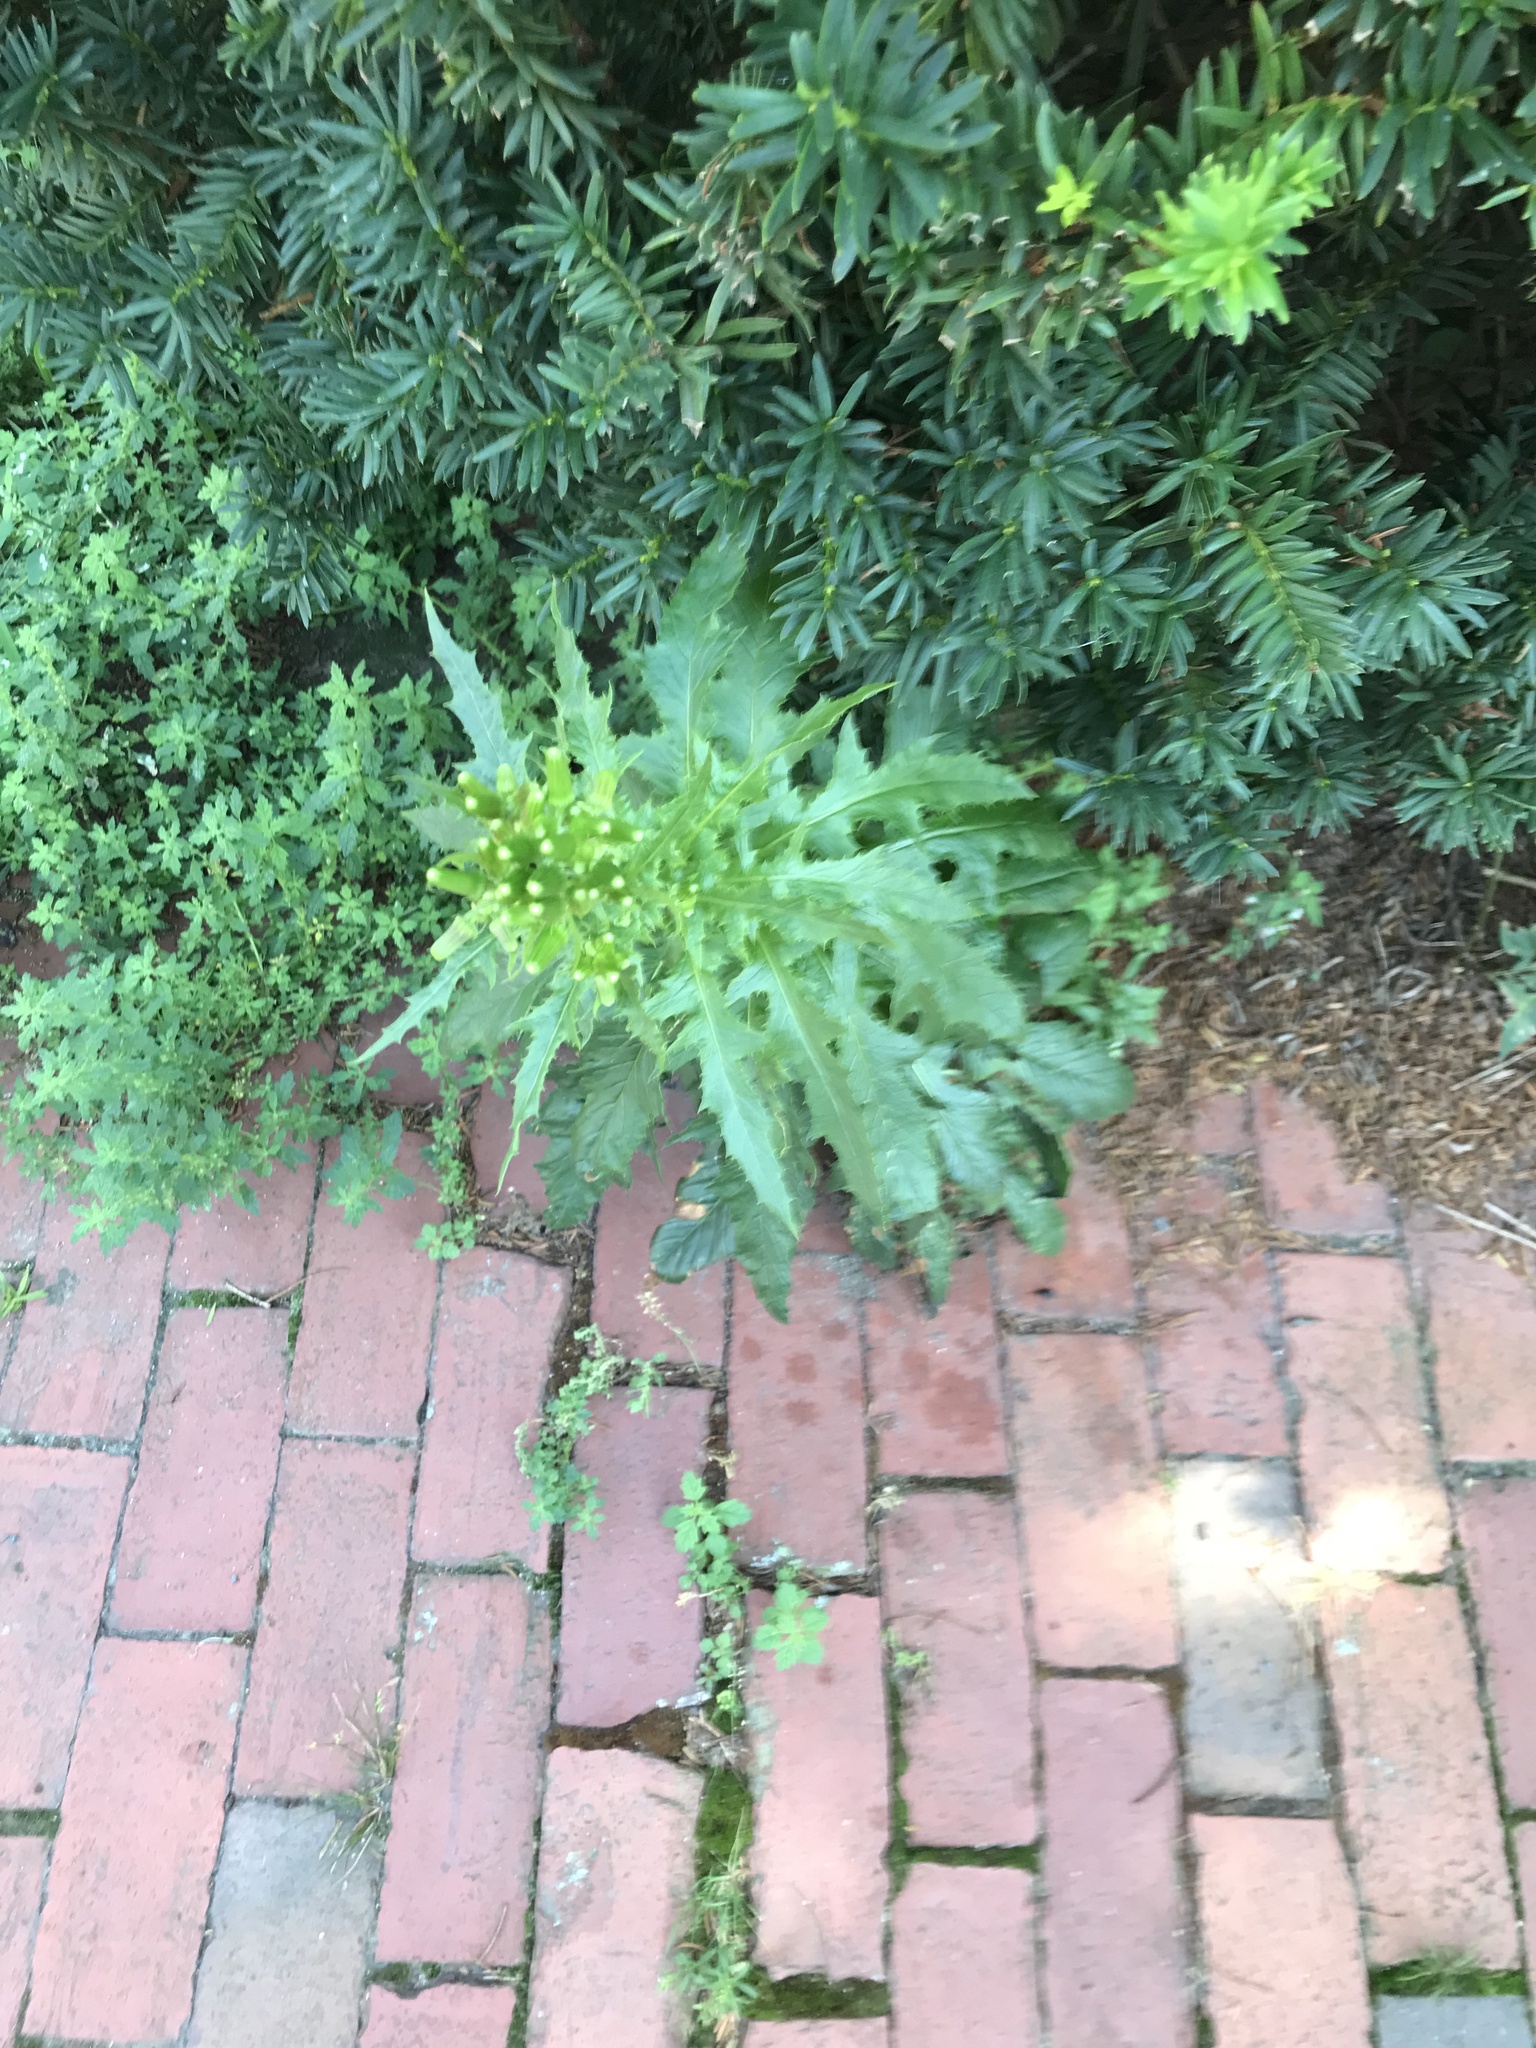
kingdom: Plantae
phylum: Tracheophyta
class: Magnoliopsida
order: Asterales
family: Asteraceae
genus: Erechtites
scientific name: Erechtites hieraciifolius
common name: American burnweed
